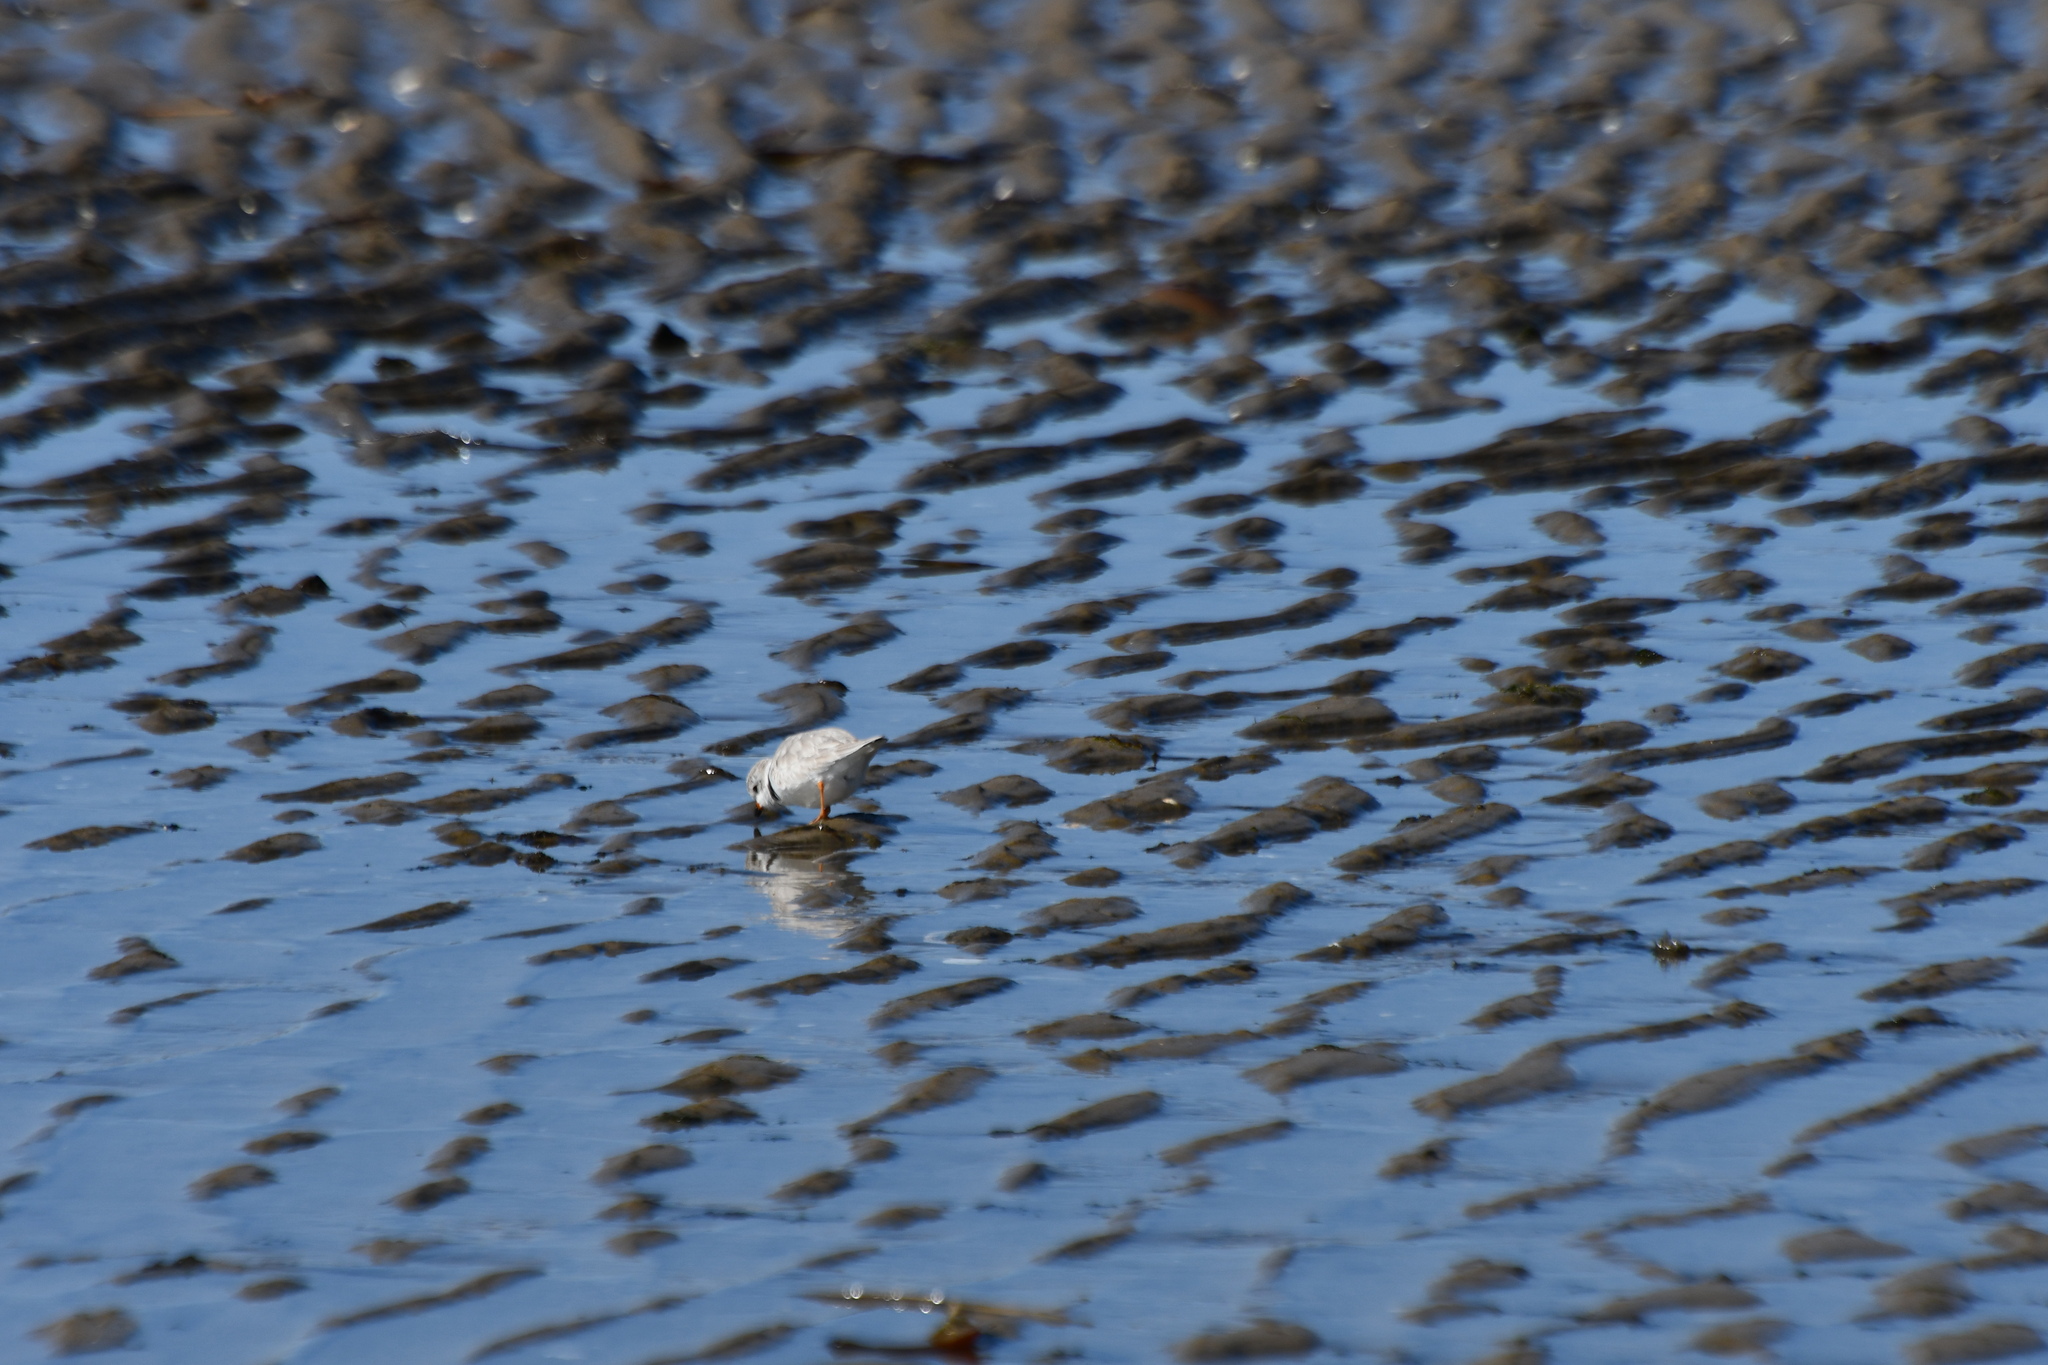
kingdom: Animalia
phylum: Chordata
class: Aves
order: Charadriiformes
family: Charadriidae
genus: Charadrius
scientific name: Charadrius melodus
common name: Piping plover
